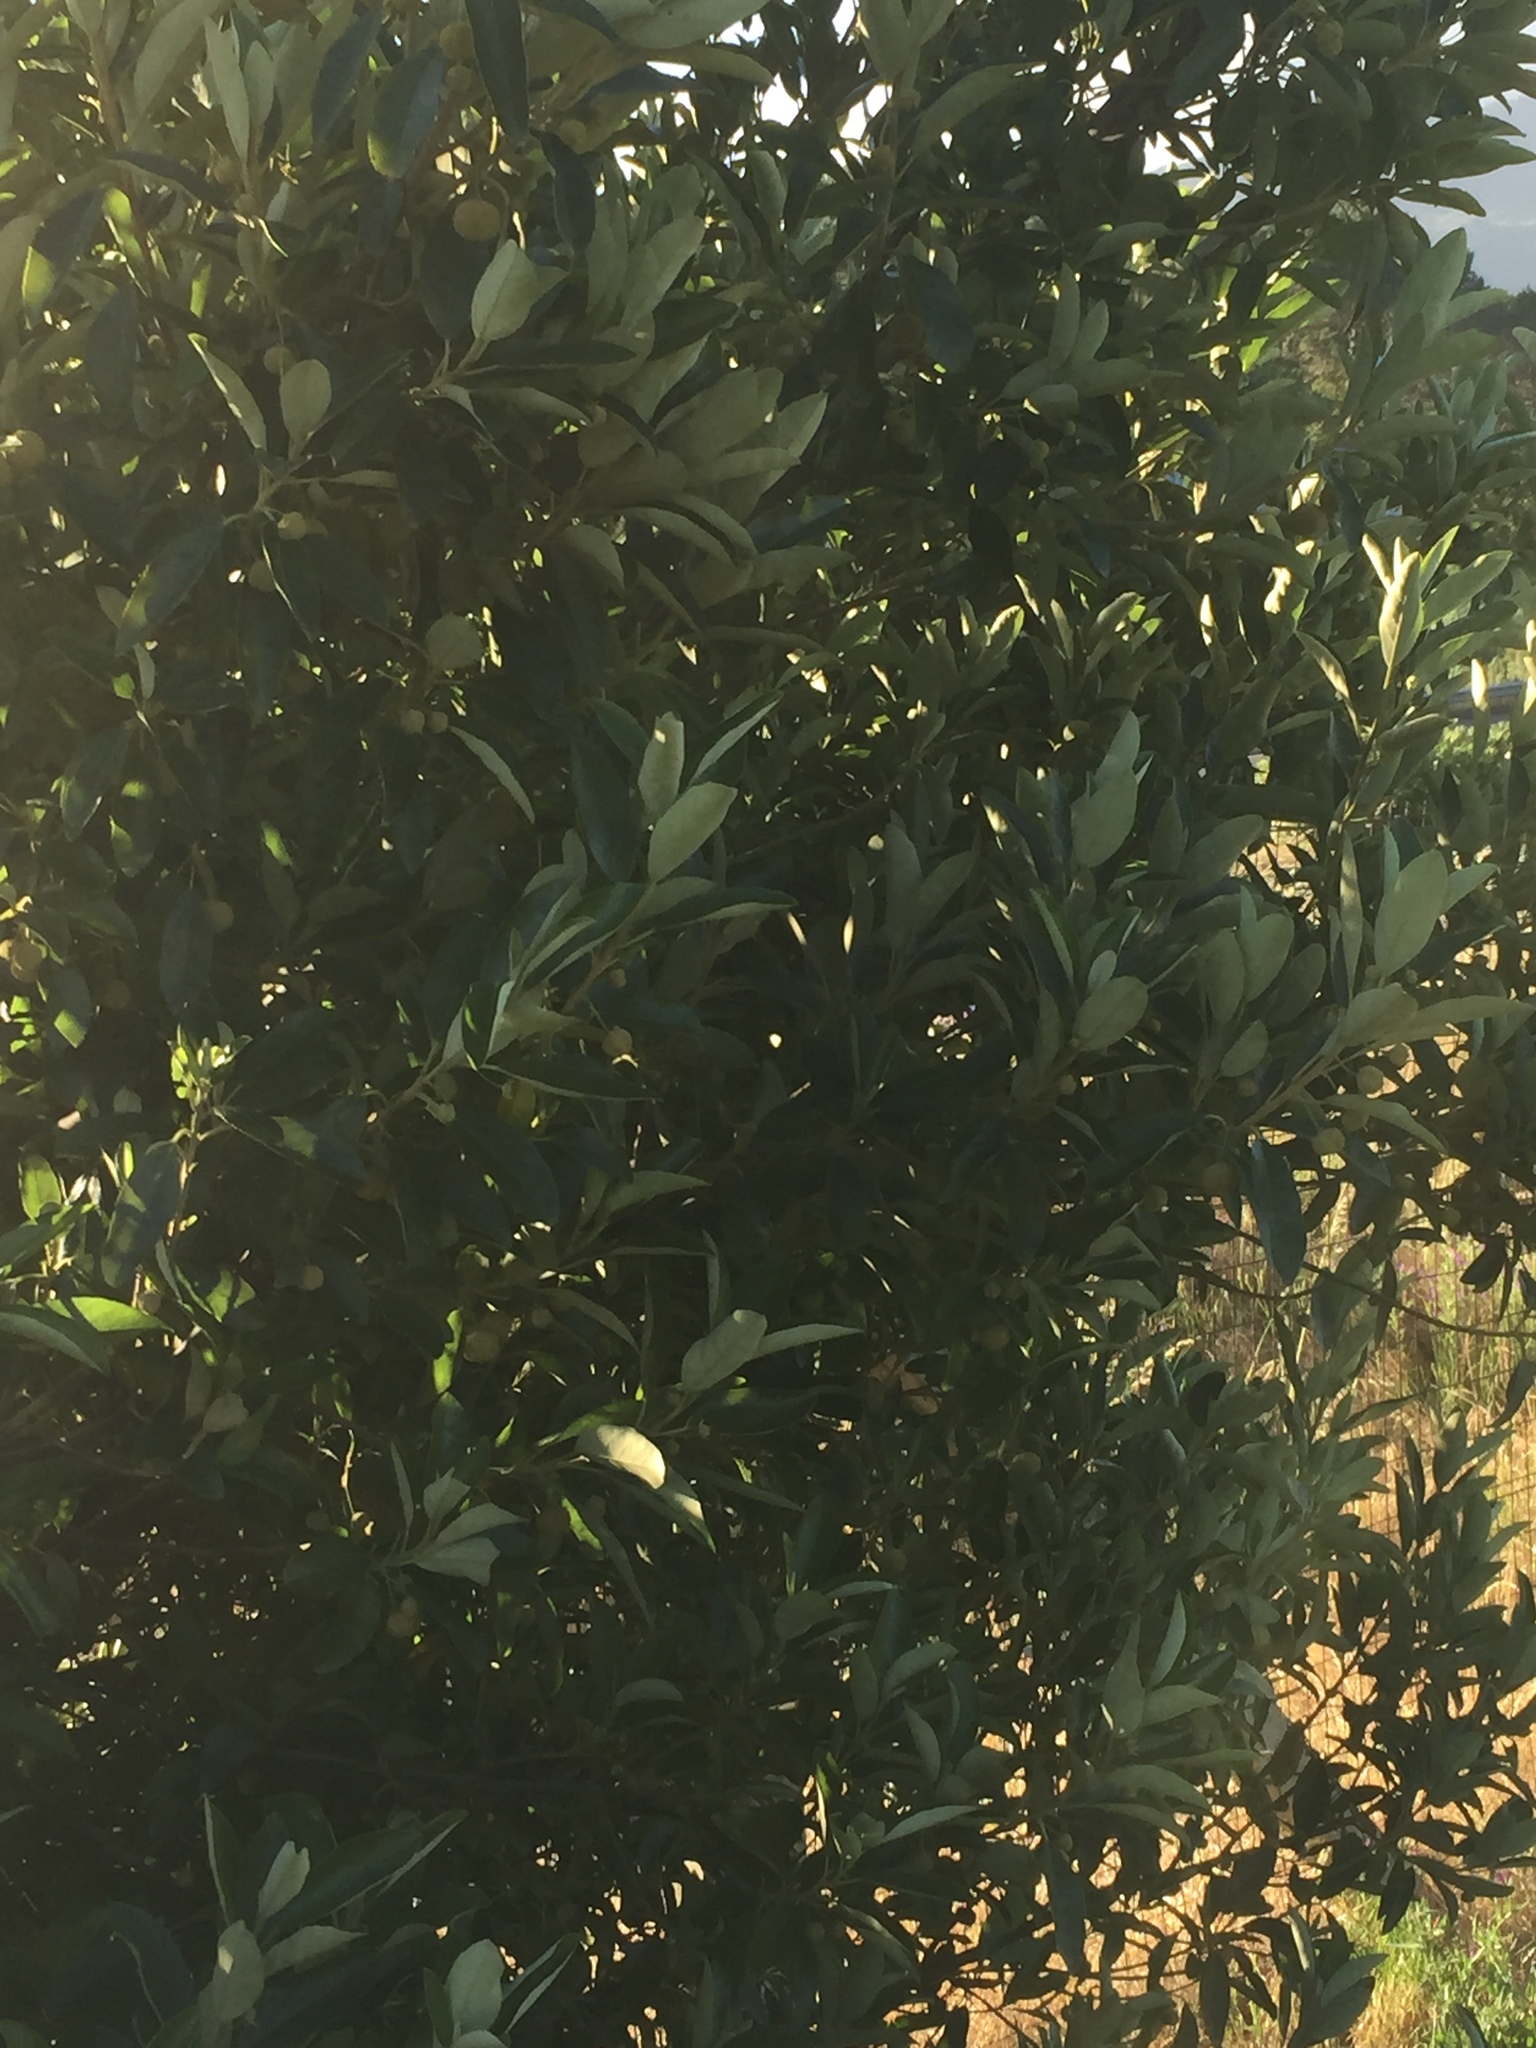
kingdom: Plantae
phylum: Tracheophyta
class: Magnoliopsida
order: Malpighiales
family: Achariaceae
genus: Kiggelaria
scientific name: Kiggelaria africana
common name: Wild peach
